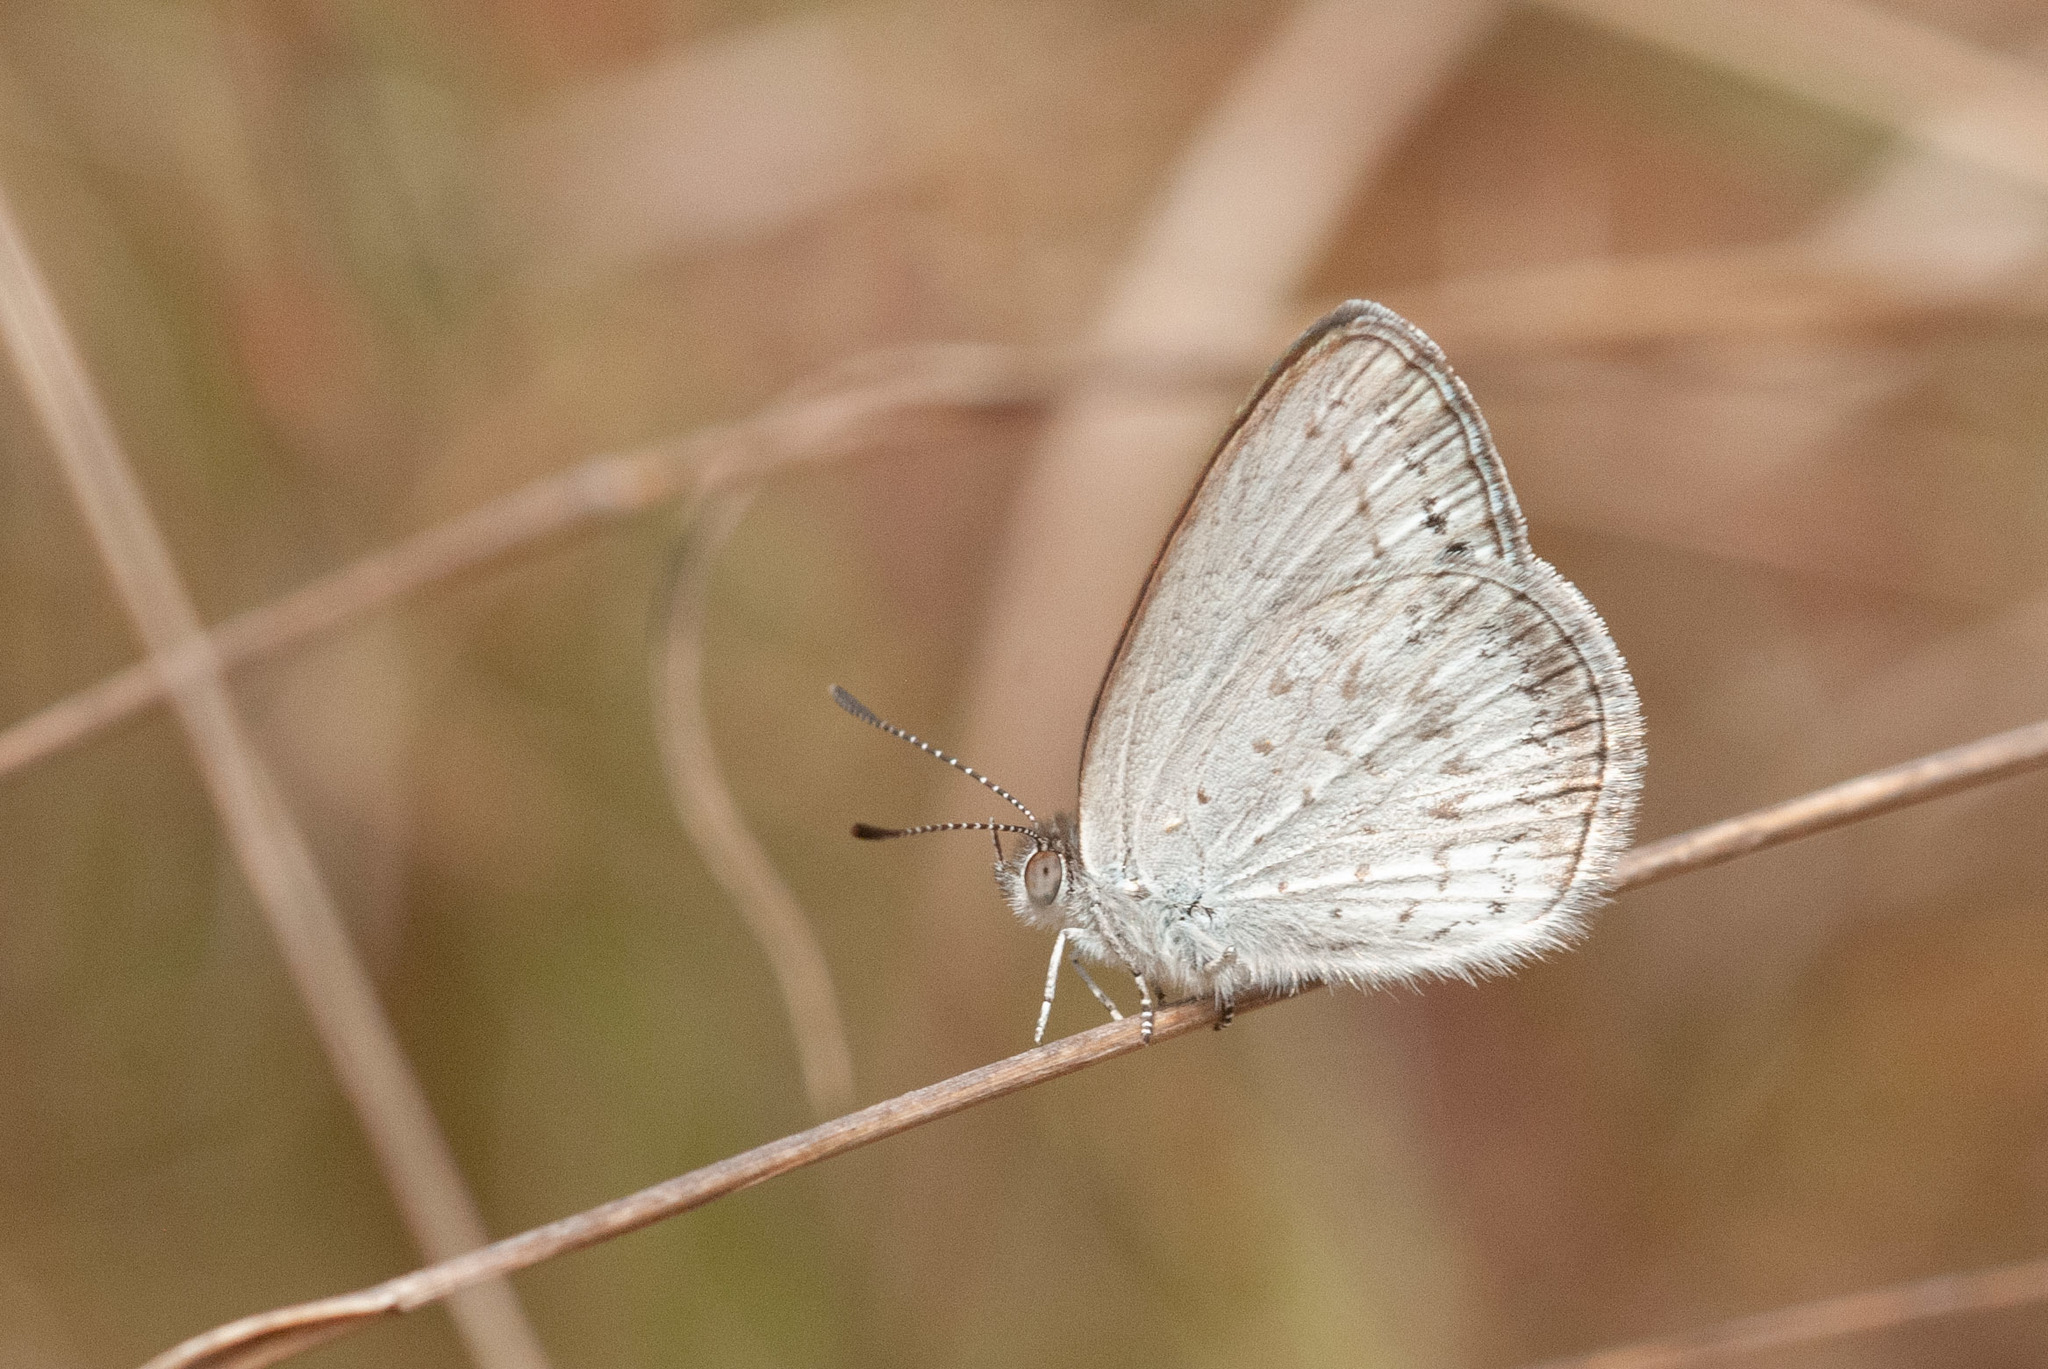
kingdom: Animalia
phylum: Arthropoda
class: Insecta
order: Lepidoptera
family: Lycaenidae
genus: Candalides
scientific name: Candalides
